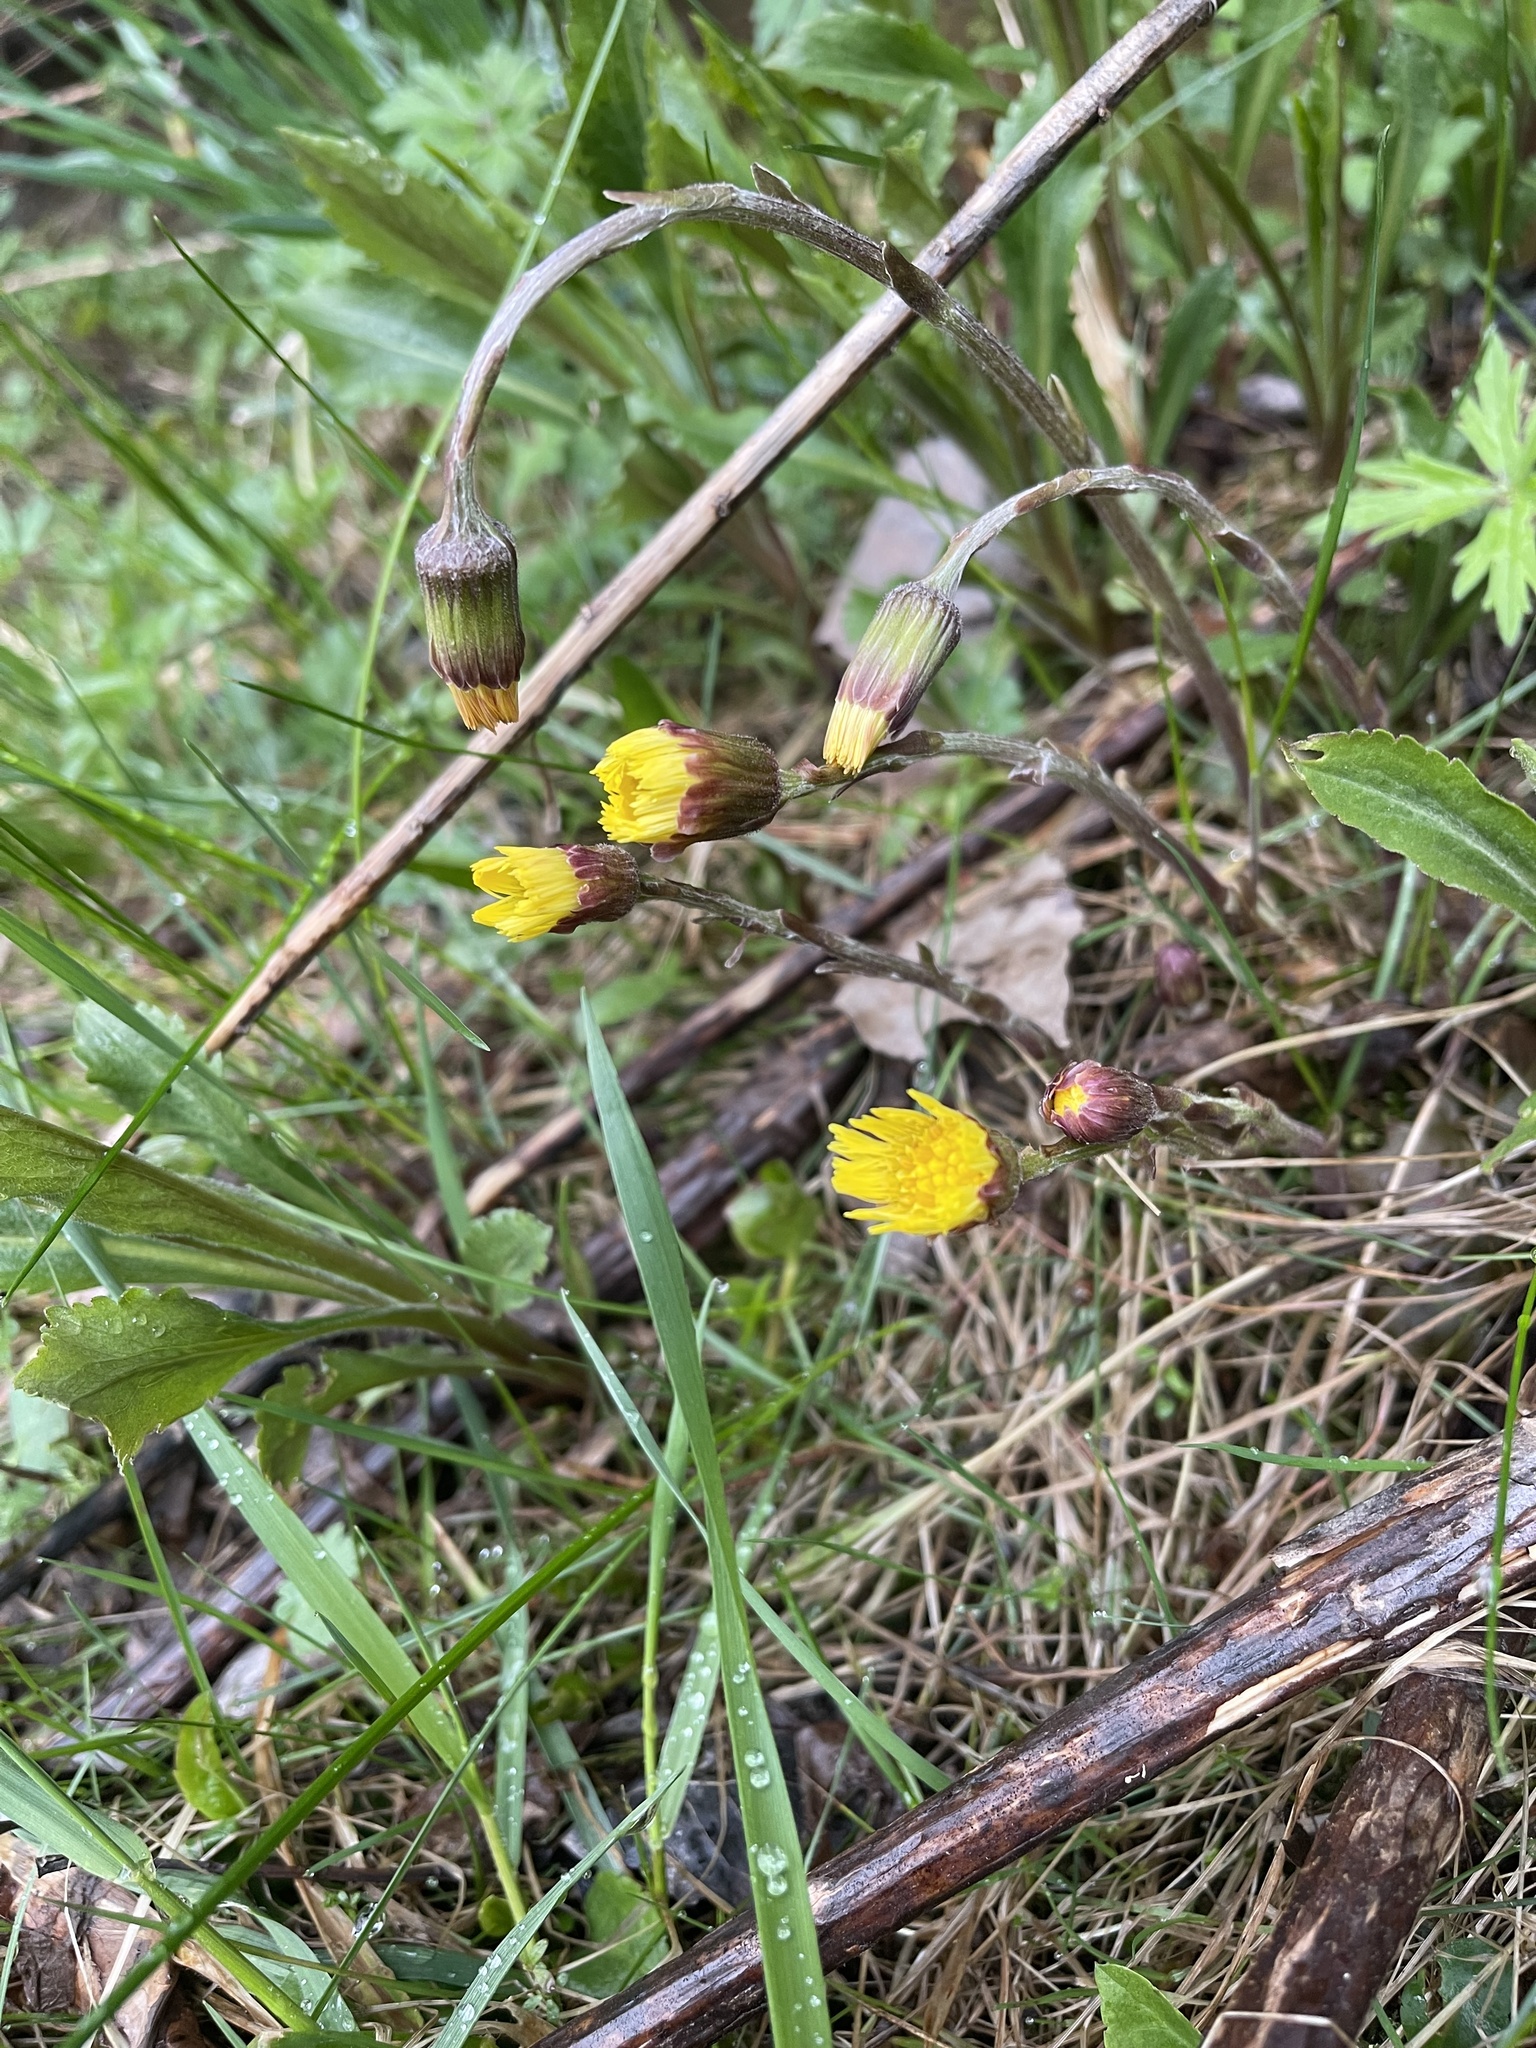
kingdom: Plantae
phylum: Tracheophyta
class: Magnoliopsida
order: Asterales
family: Asteraceae
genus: Tussilago
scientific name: Tussilago farfara
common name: Coltsfoot
